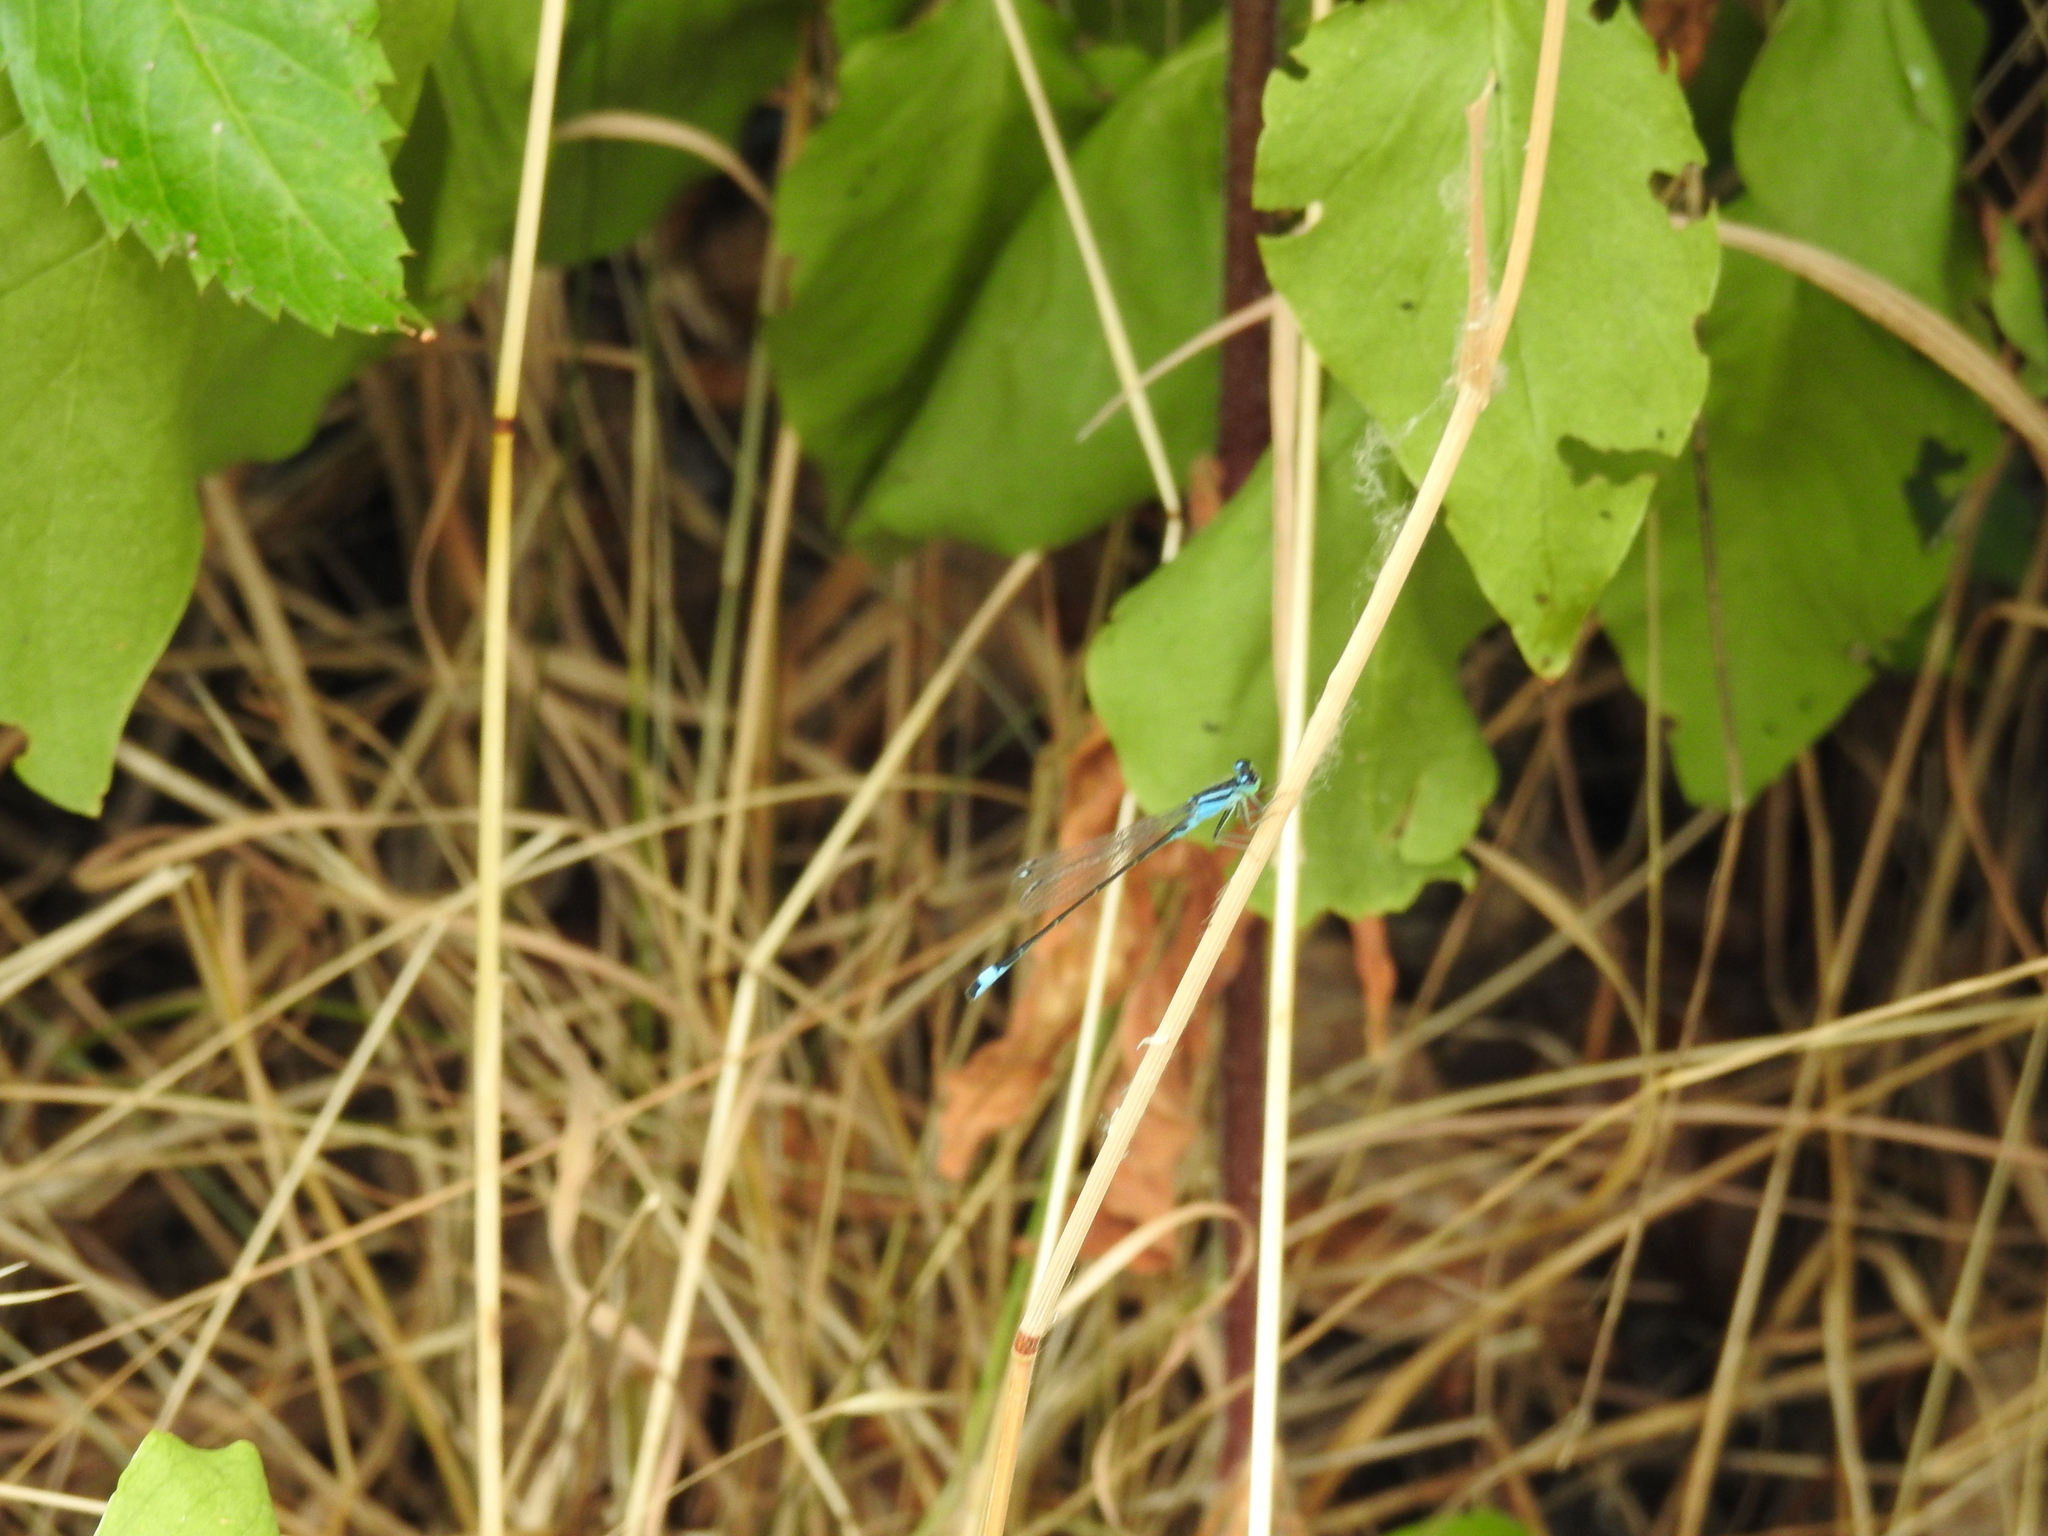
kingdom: Animalia
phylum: Arthropoda
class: Insecta
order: Odonata
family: Coenagrionidae
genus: Ischnura
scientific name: Ischnura elegans
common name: Blue-tailed damselfly
